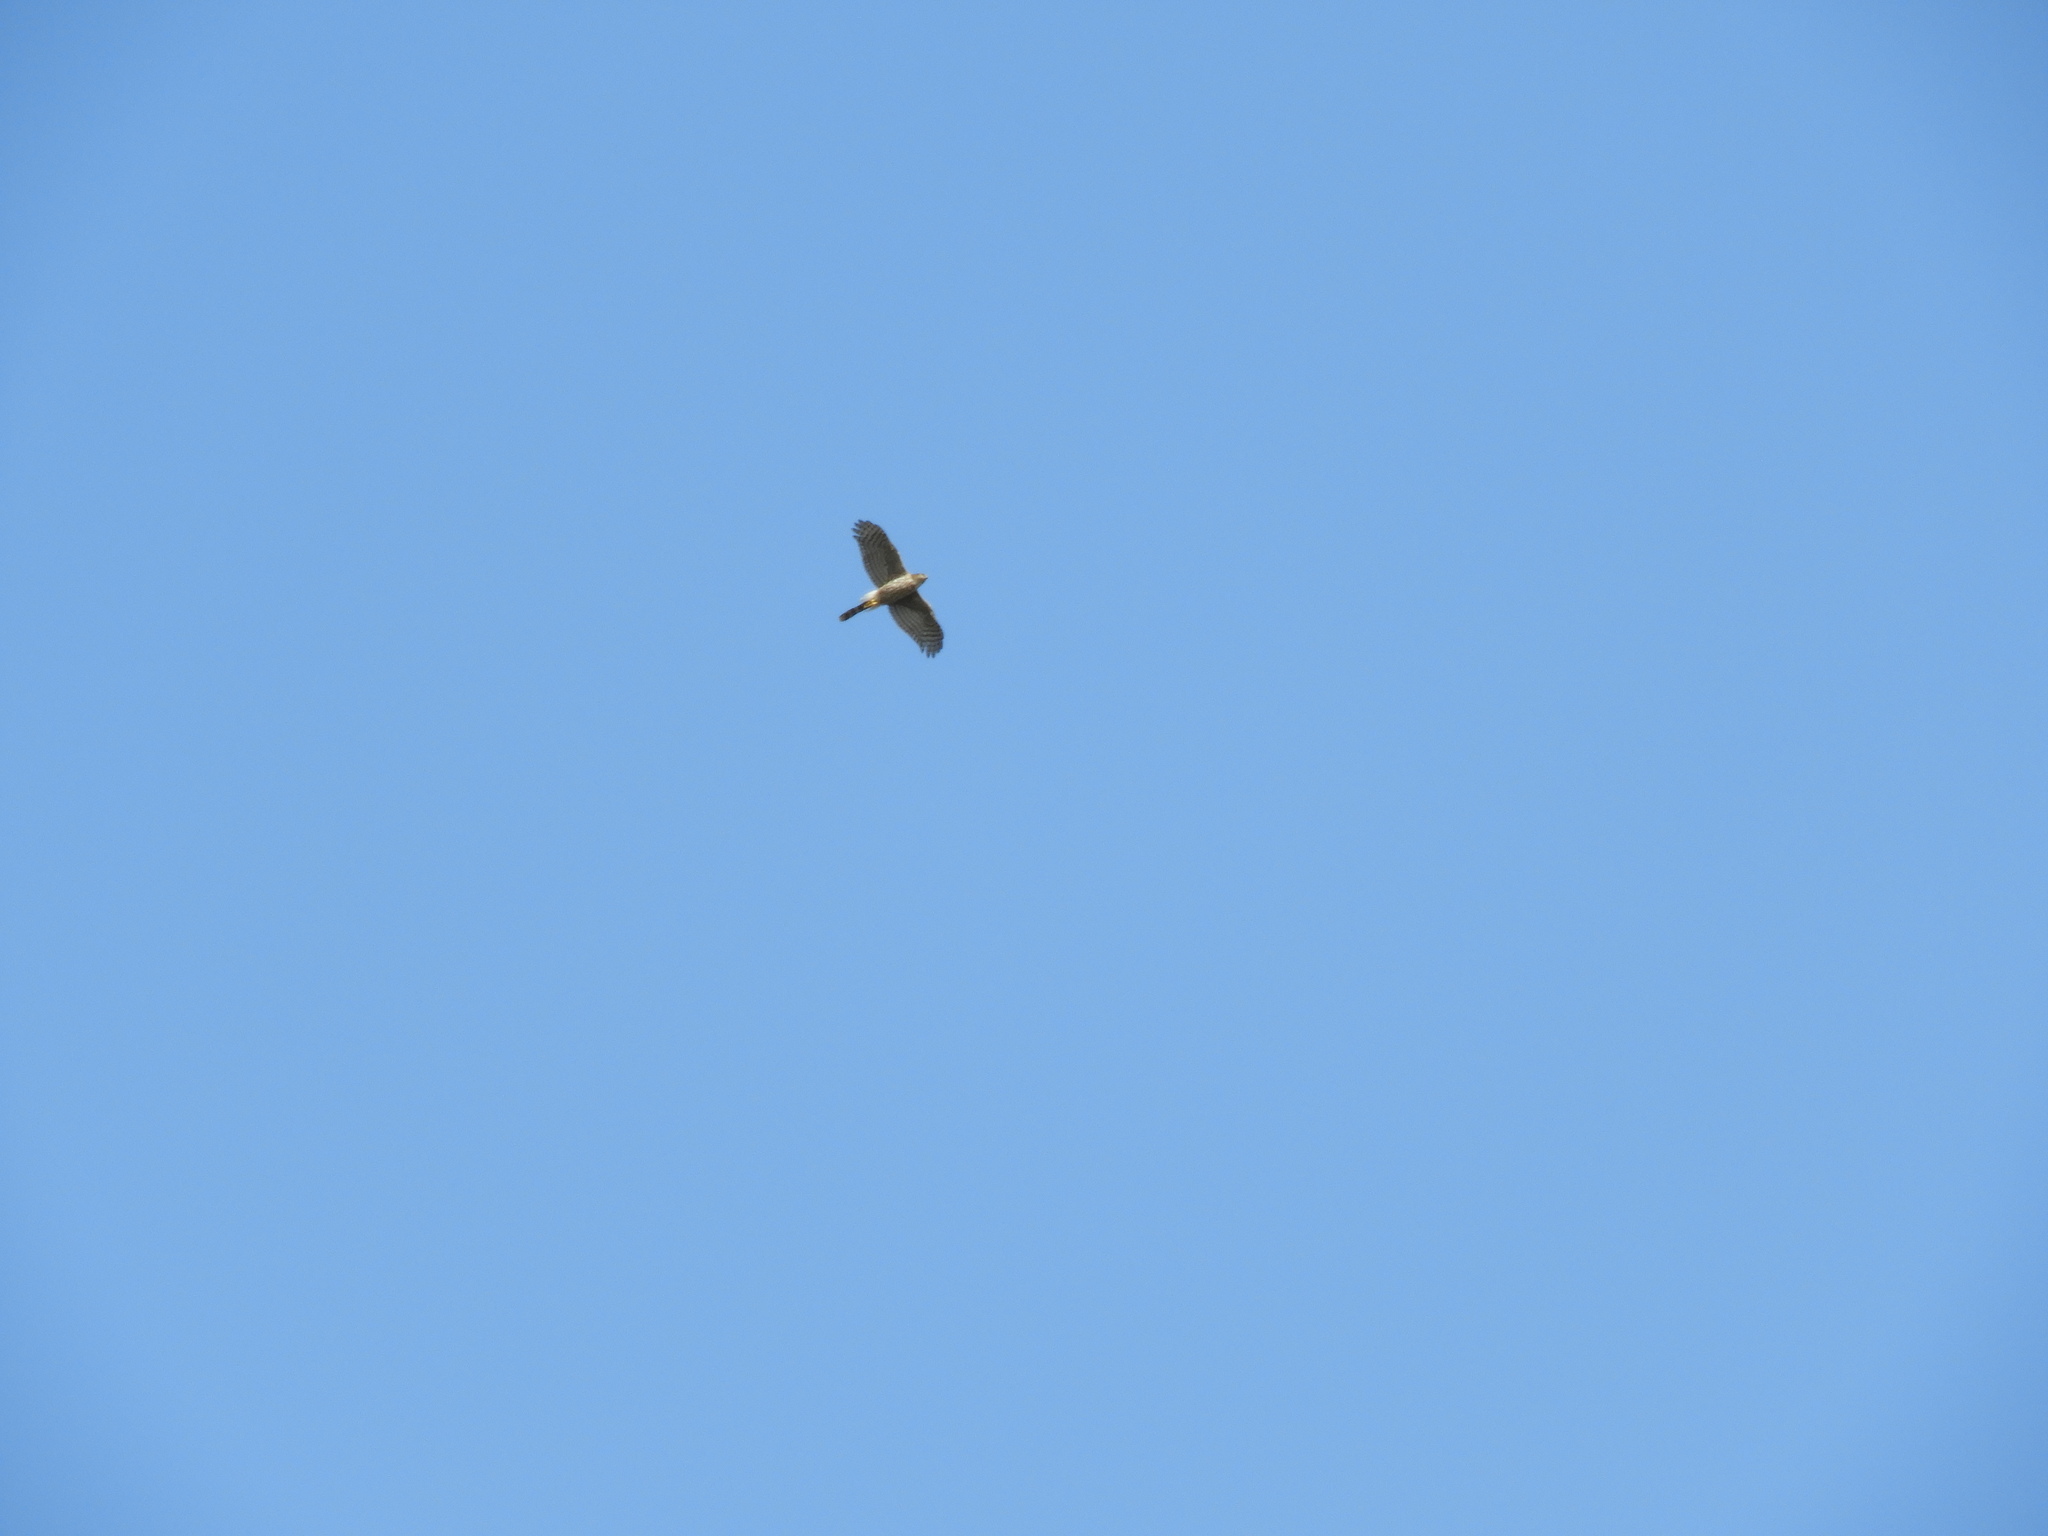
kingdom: Animalia
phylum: Chordata
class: Aves
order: Accipitriformes
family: Accipitridae
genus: Accipiter
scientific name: Accipiter cooperii
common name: Cooper's hawk
